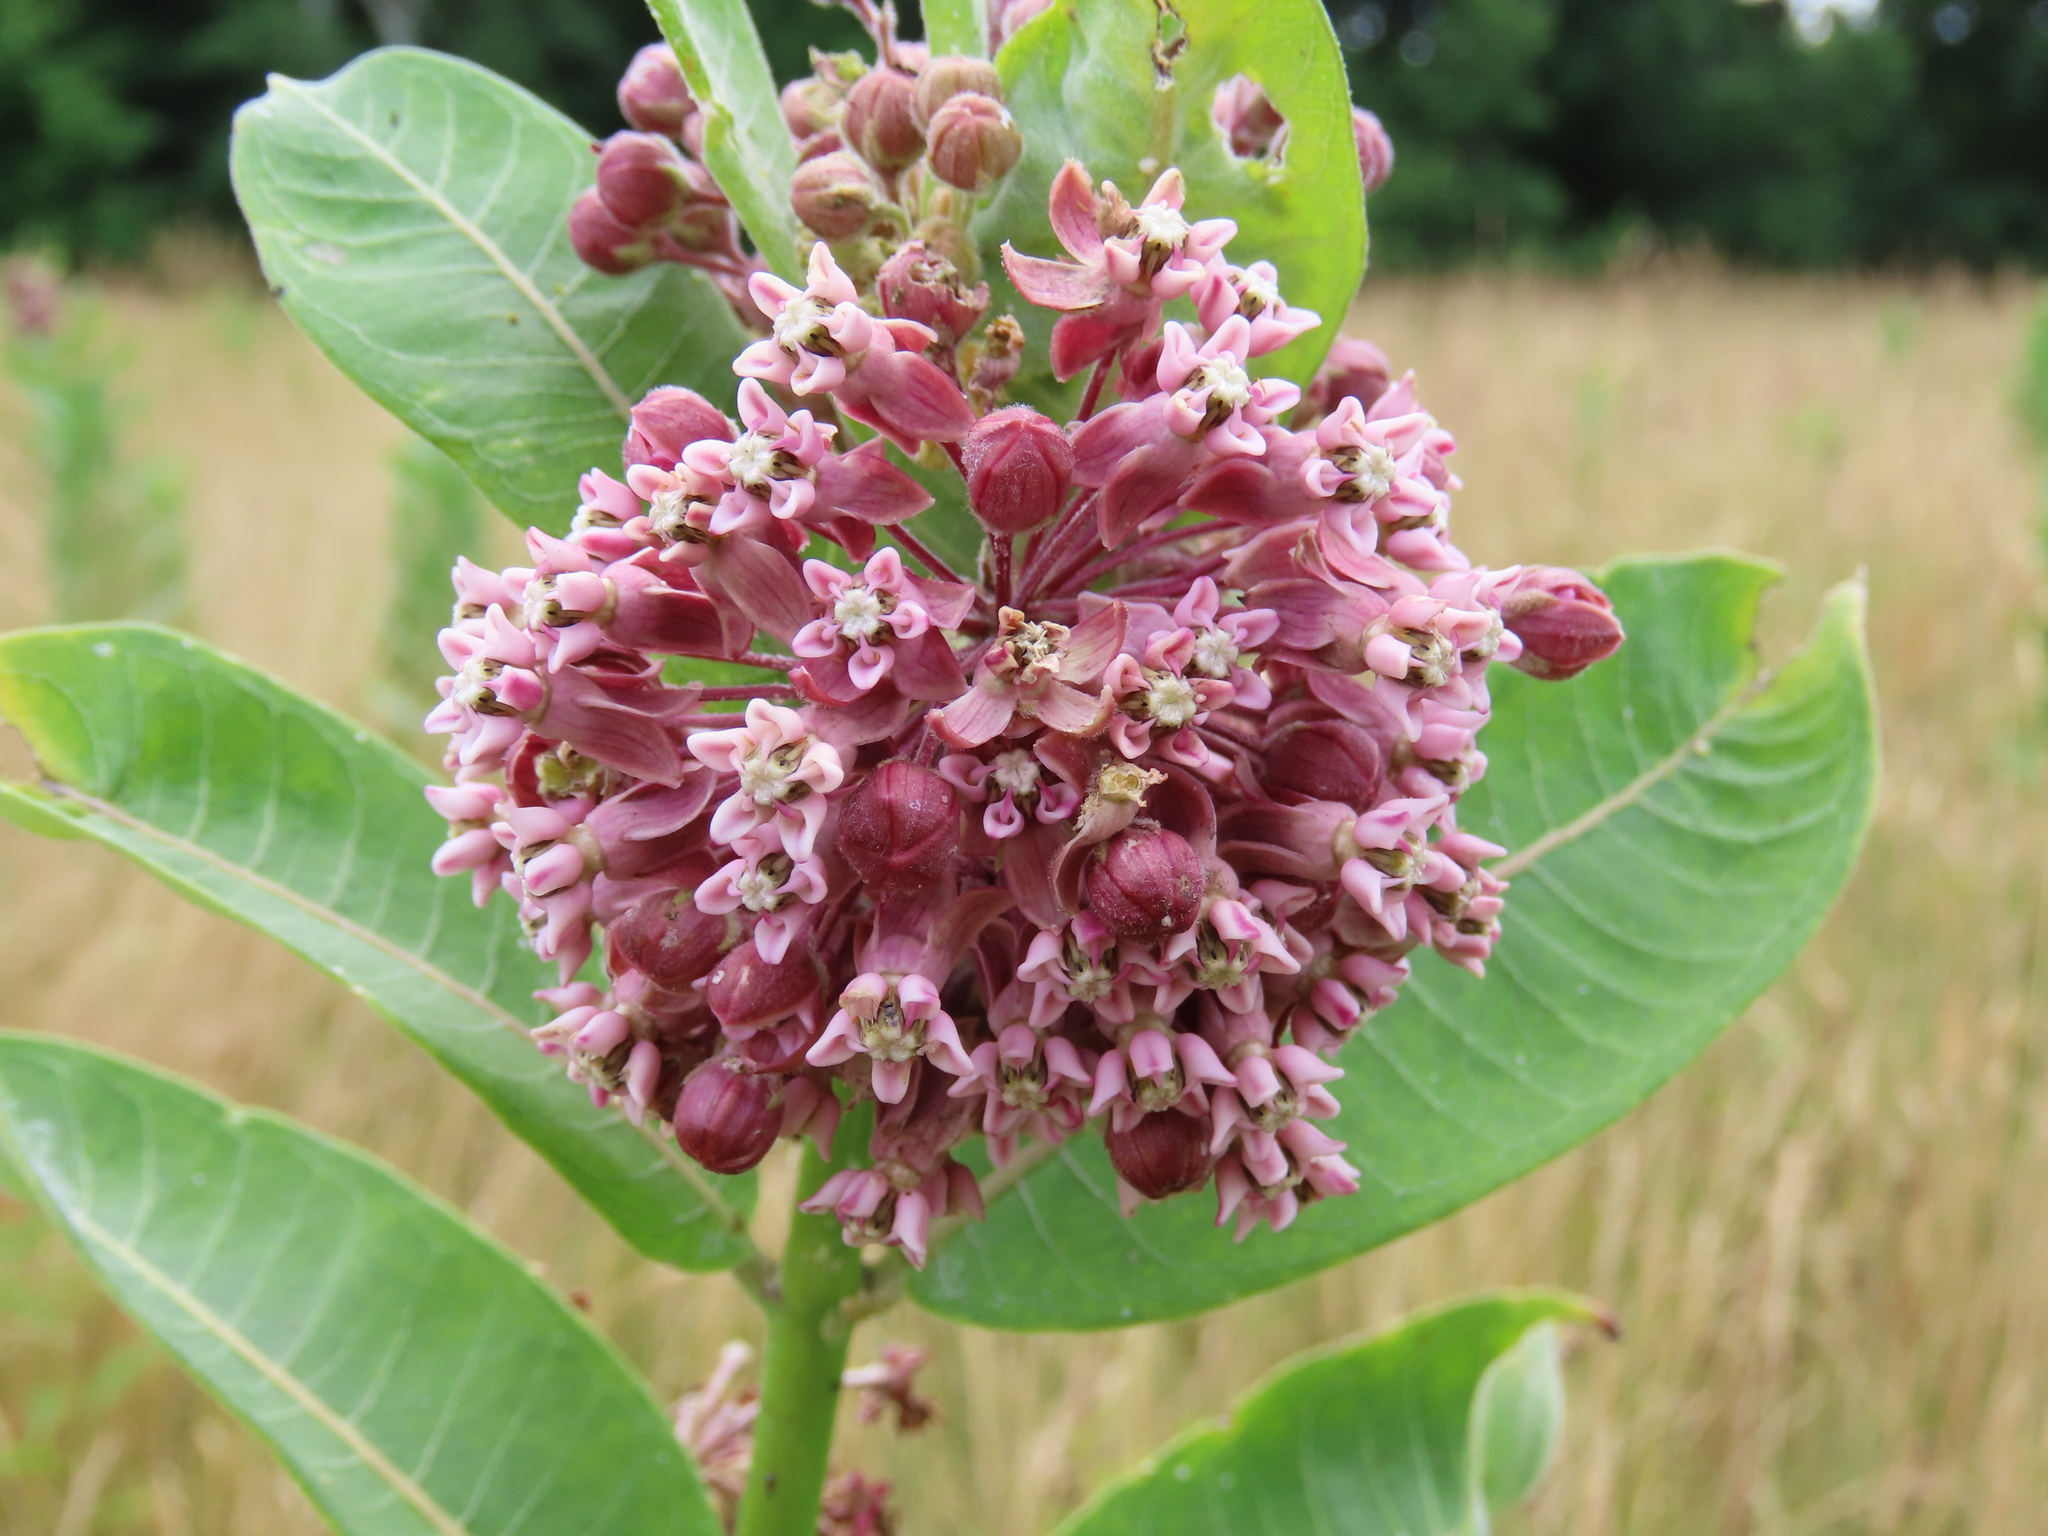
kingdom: Plantae
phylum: Tracheophyta
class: Magnoliopsida
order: Gentianales
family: Apocynaceae
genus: Asclepias
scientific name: Asclepias syriaca
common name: Common milkweed
